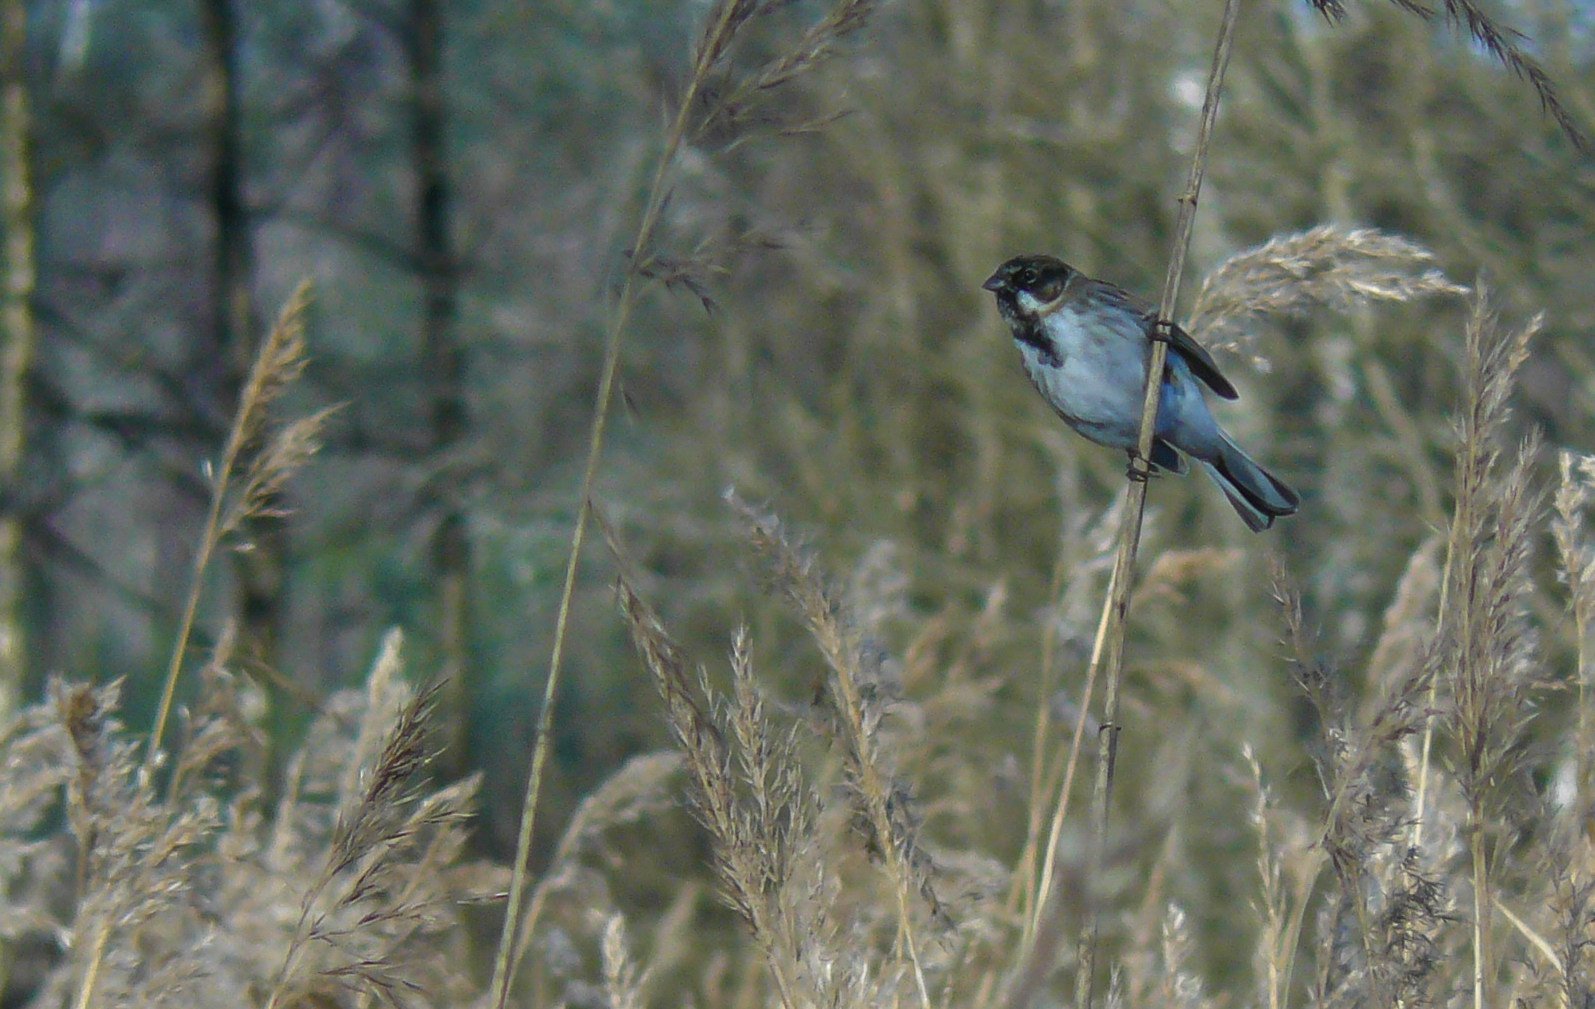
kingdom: Animalia
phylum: Chordata
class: Aves
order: Passeriformes
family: Emberizidae
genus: Emberiza
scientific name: Emberiza schoeniclus
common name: Reed bunting
